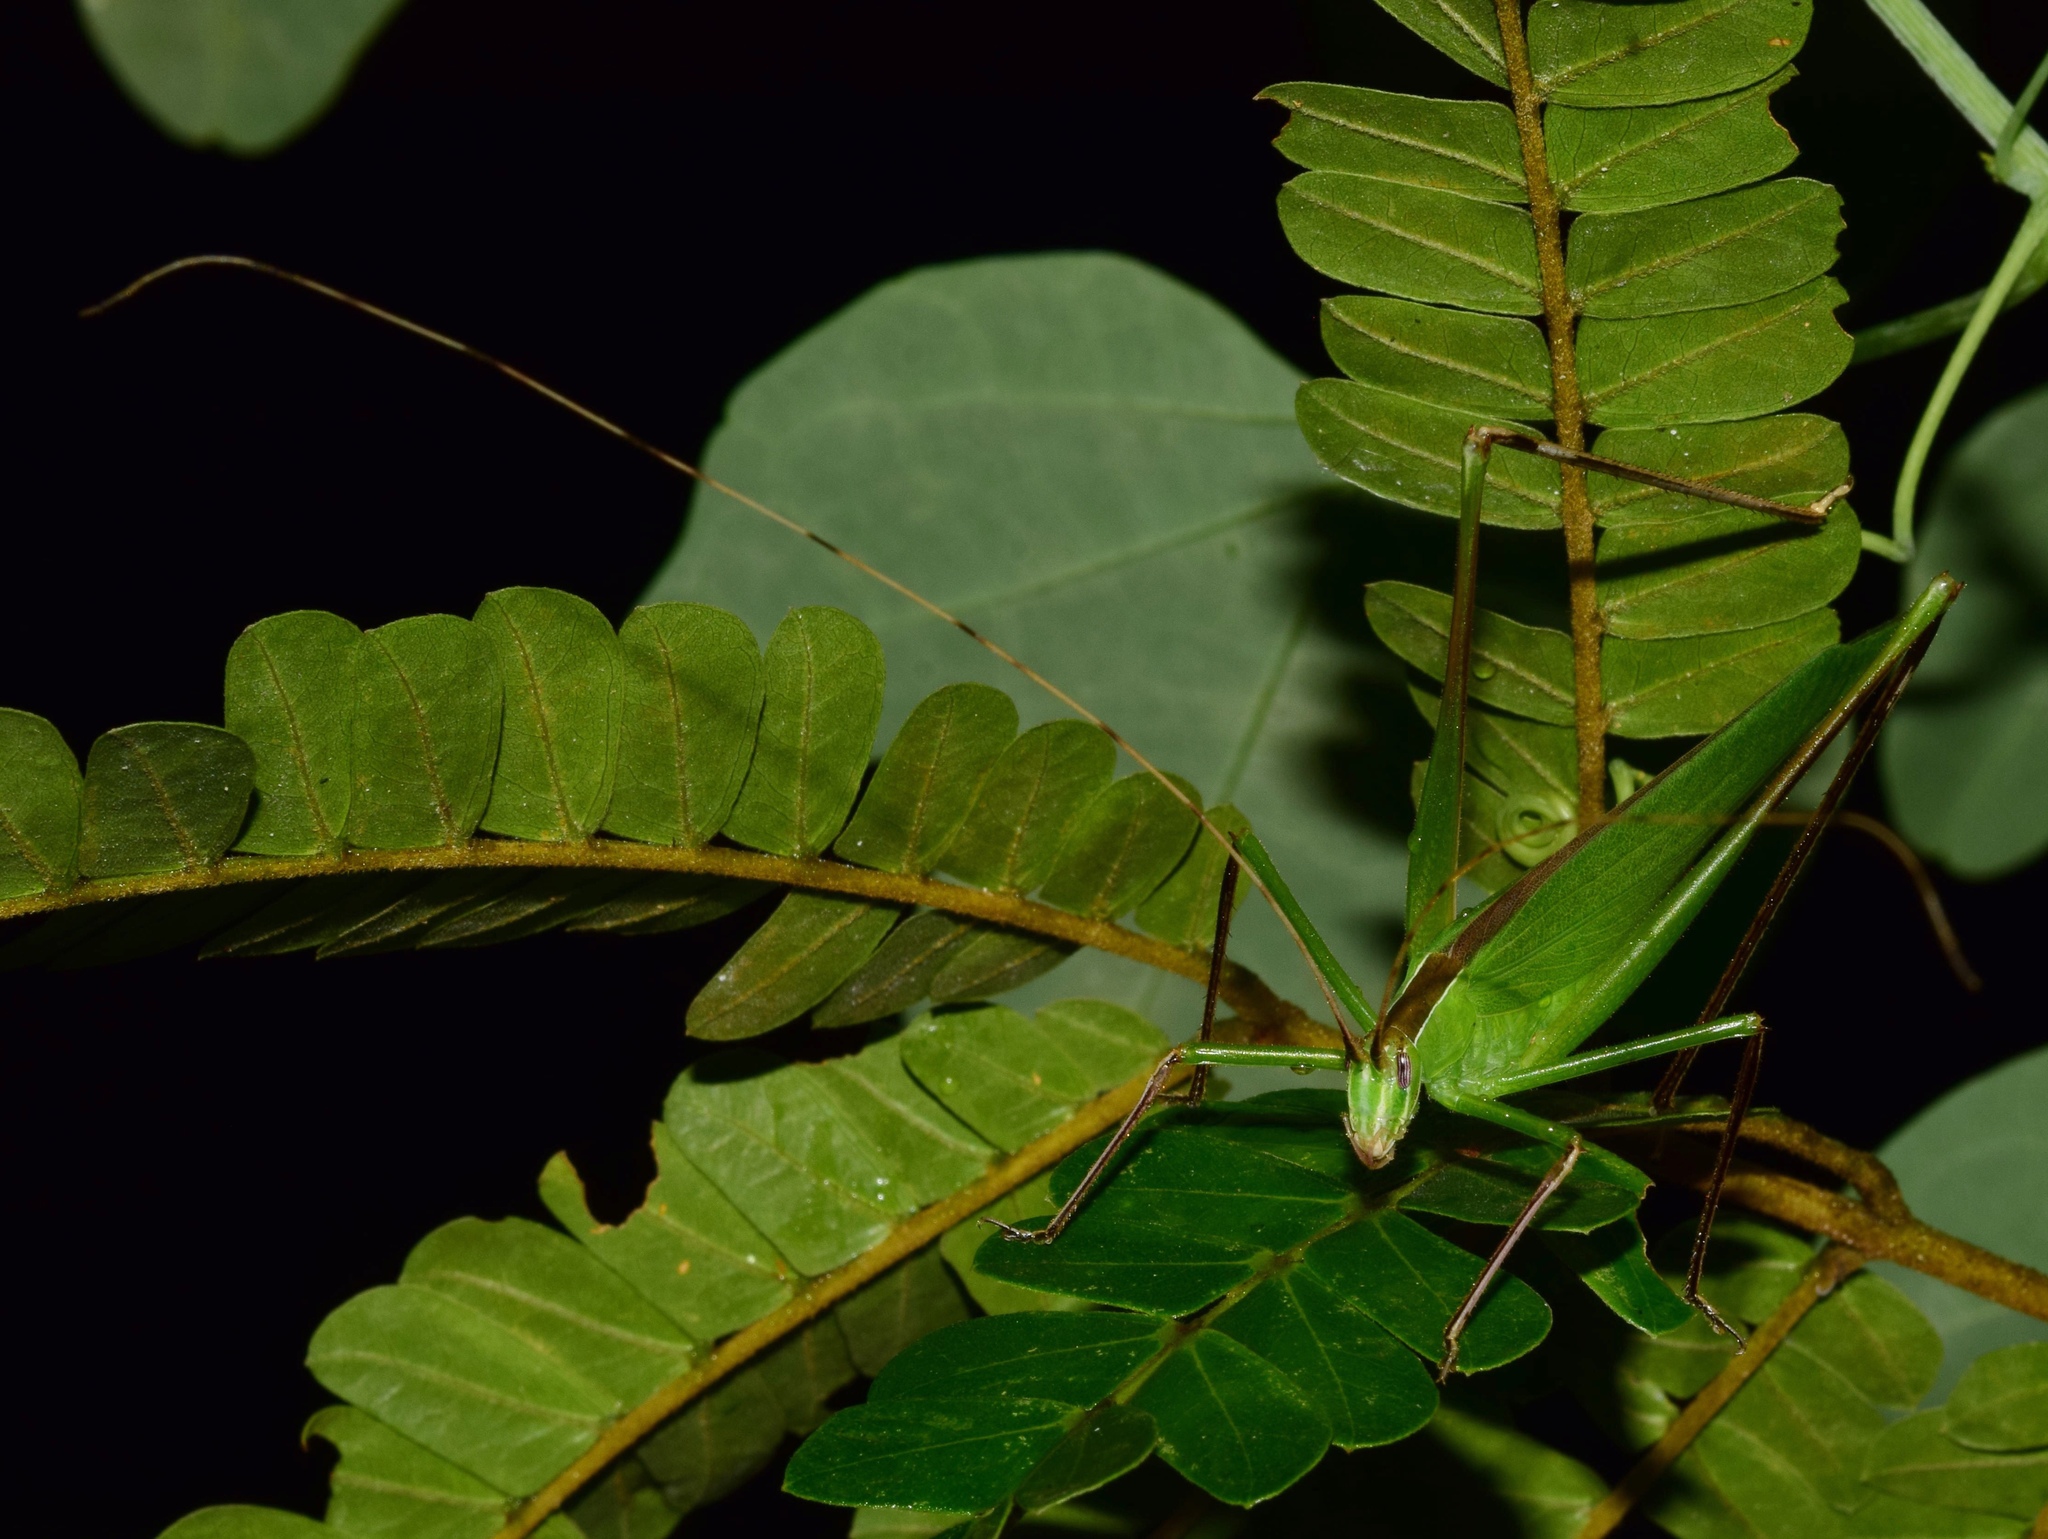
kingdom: Animalia
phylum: Arthropoda
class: Insecta
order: Orthoptera
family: Tettigoniidae
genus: Tylopsis
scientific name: Tylopsis continua
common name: Common grass katydid
